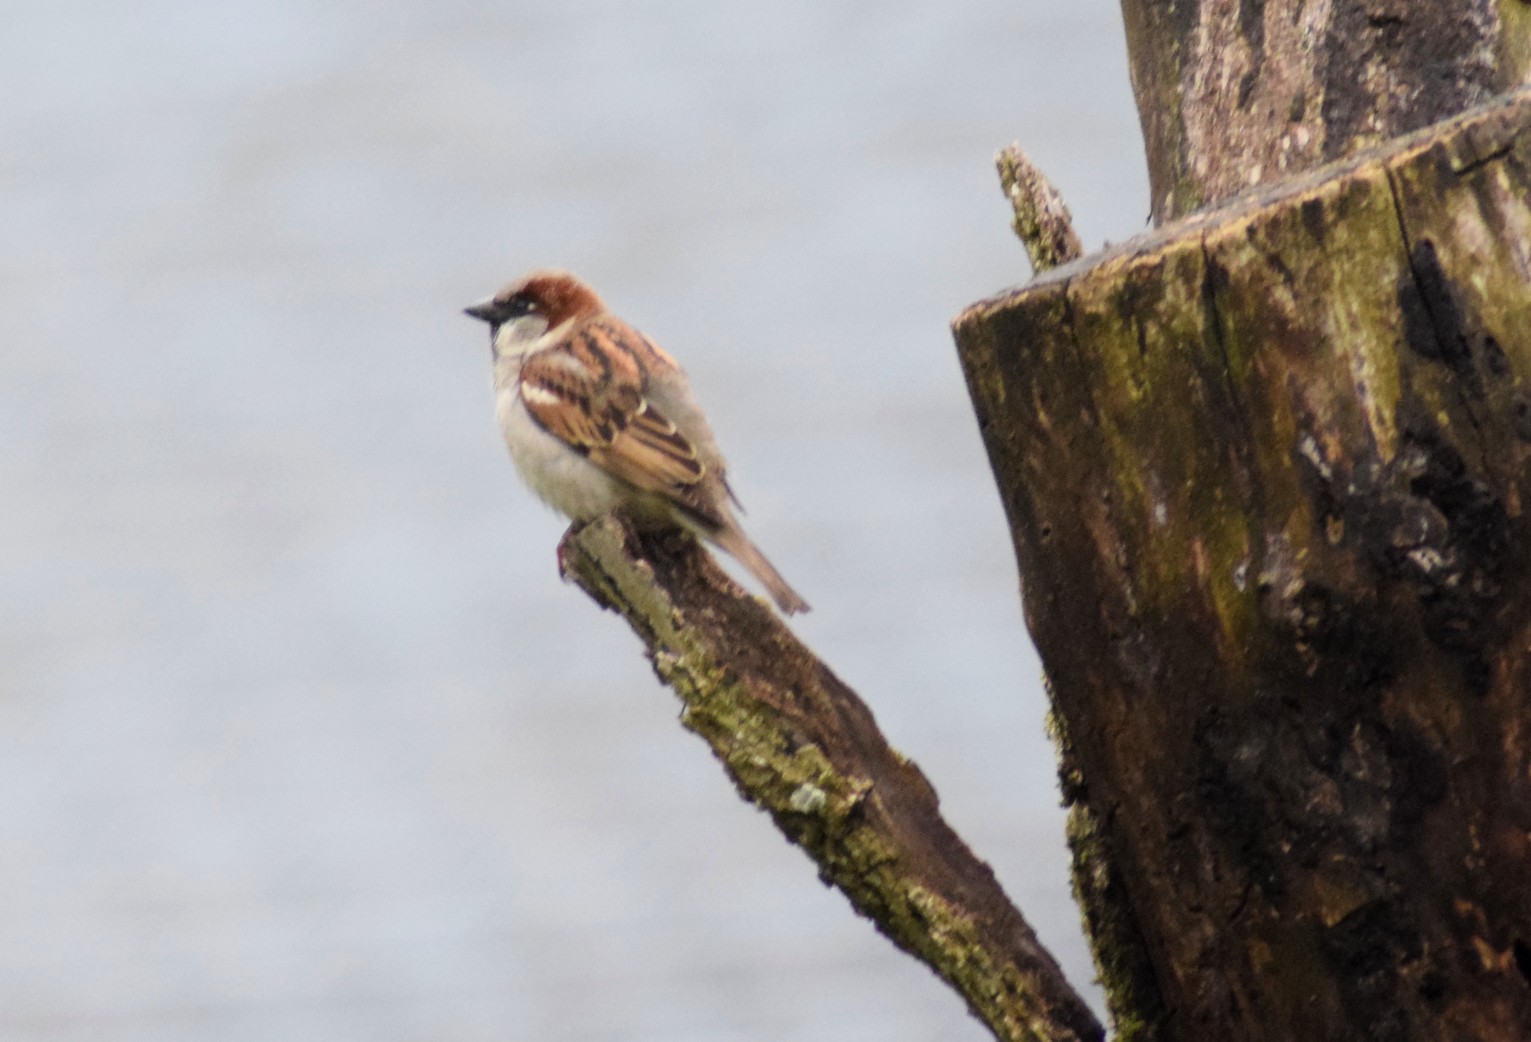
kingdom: Animalia
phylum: Chordata
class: Aves
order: Passeriformes
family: Passeridae
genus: Passer
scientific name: Passer domesticus
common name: House sparrow
